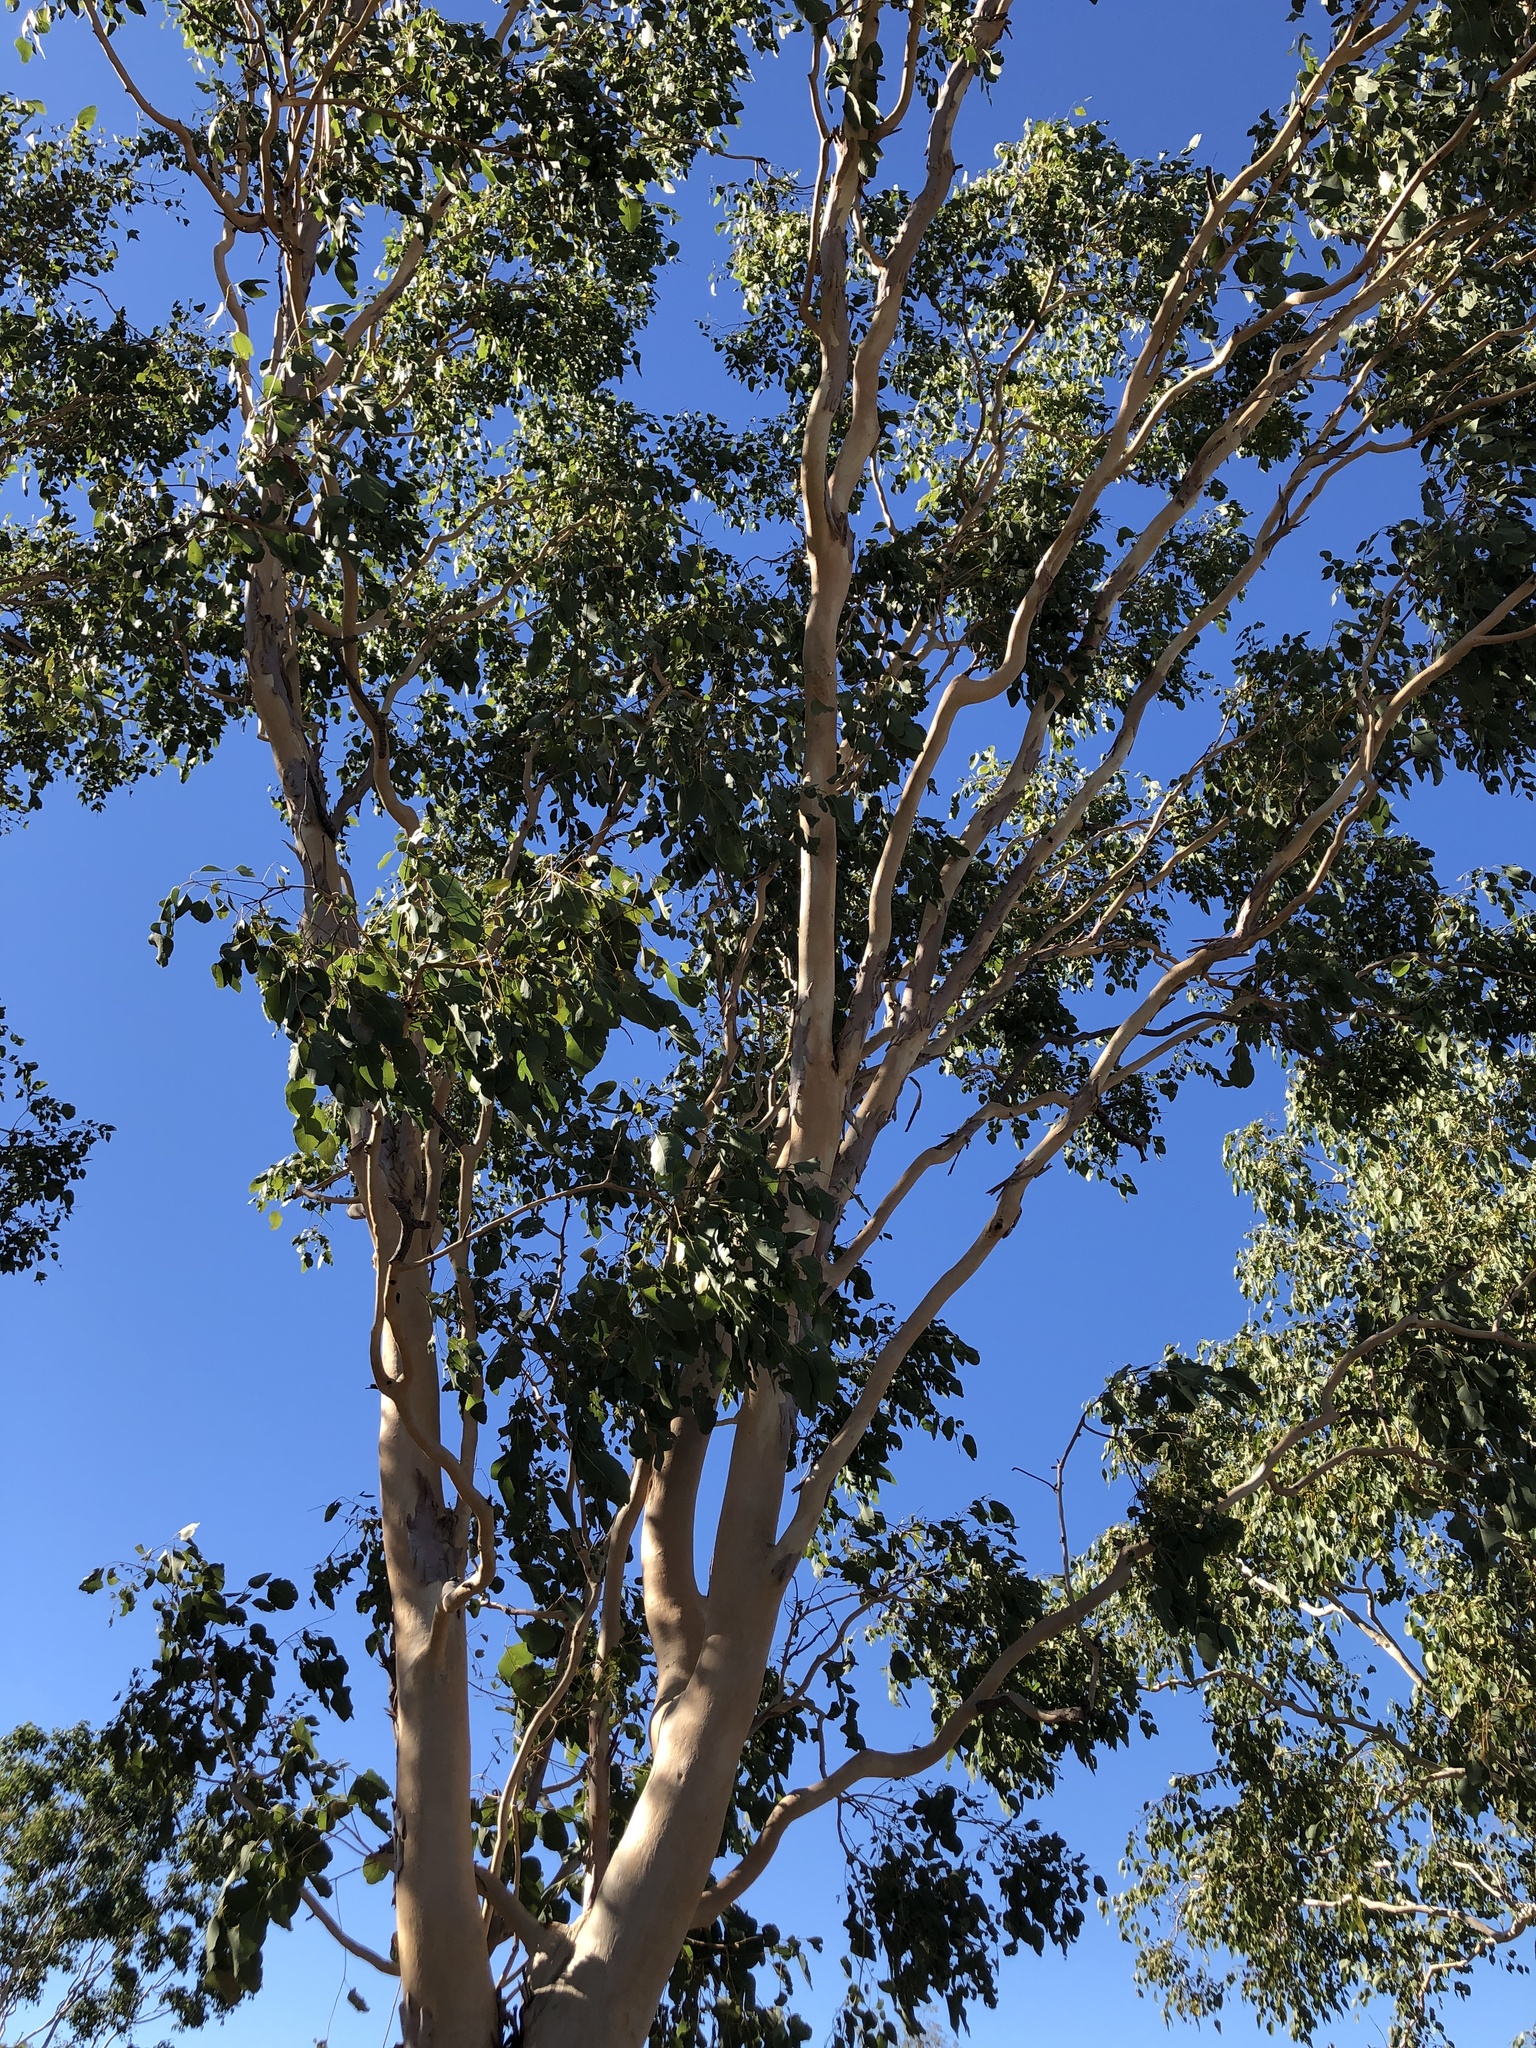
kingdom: Plantae
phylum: Tracheophyta
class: Magnoliopsida
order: Myrtales
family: Myrtaceae
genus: Eucalyptus
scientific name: Eucalyptus platyphylla
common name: Poplar-gum
